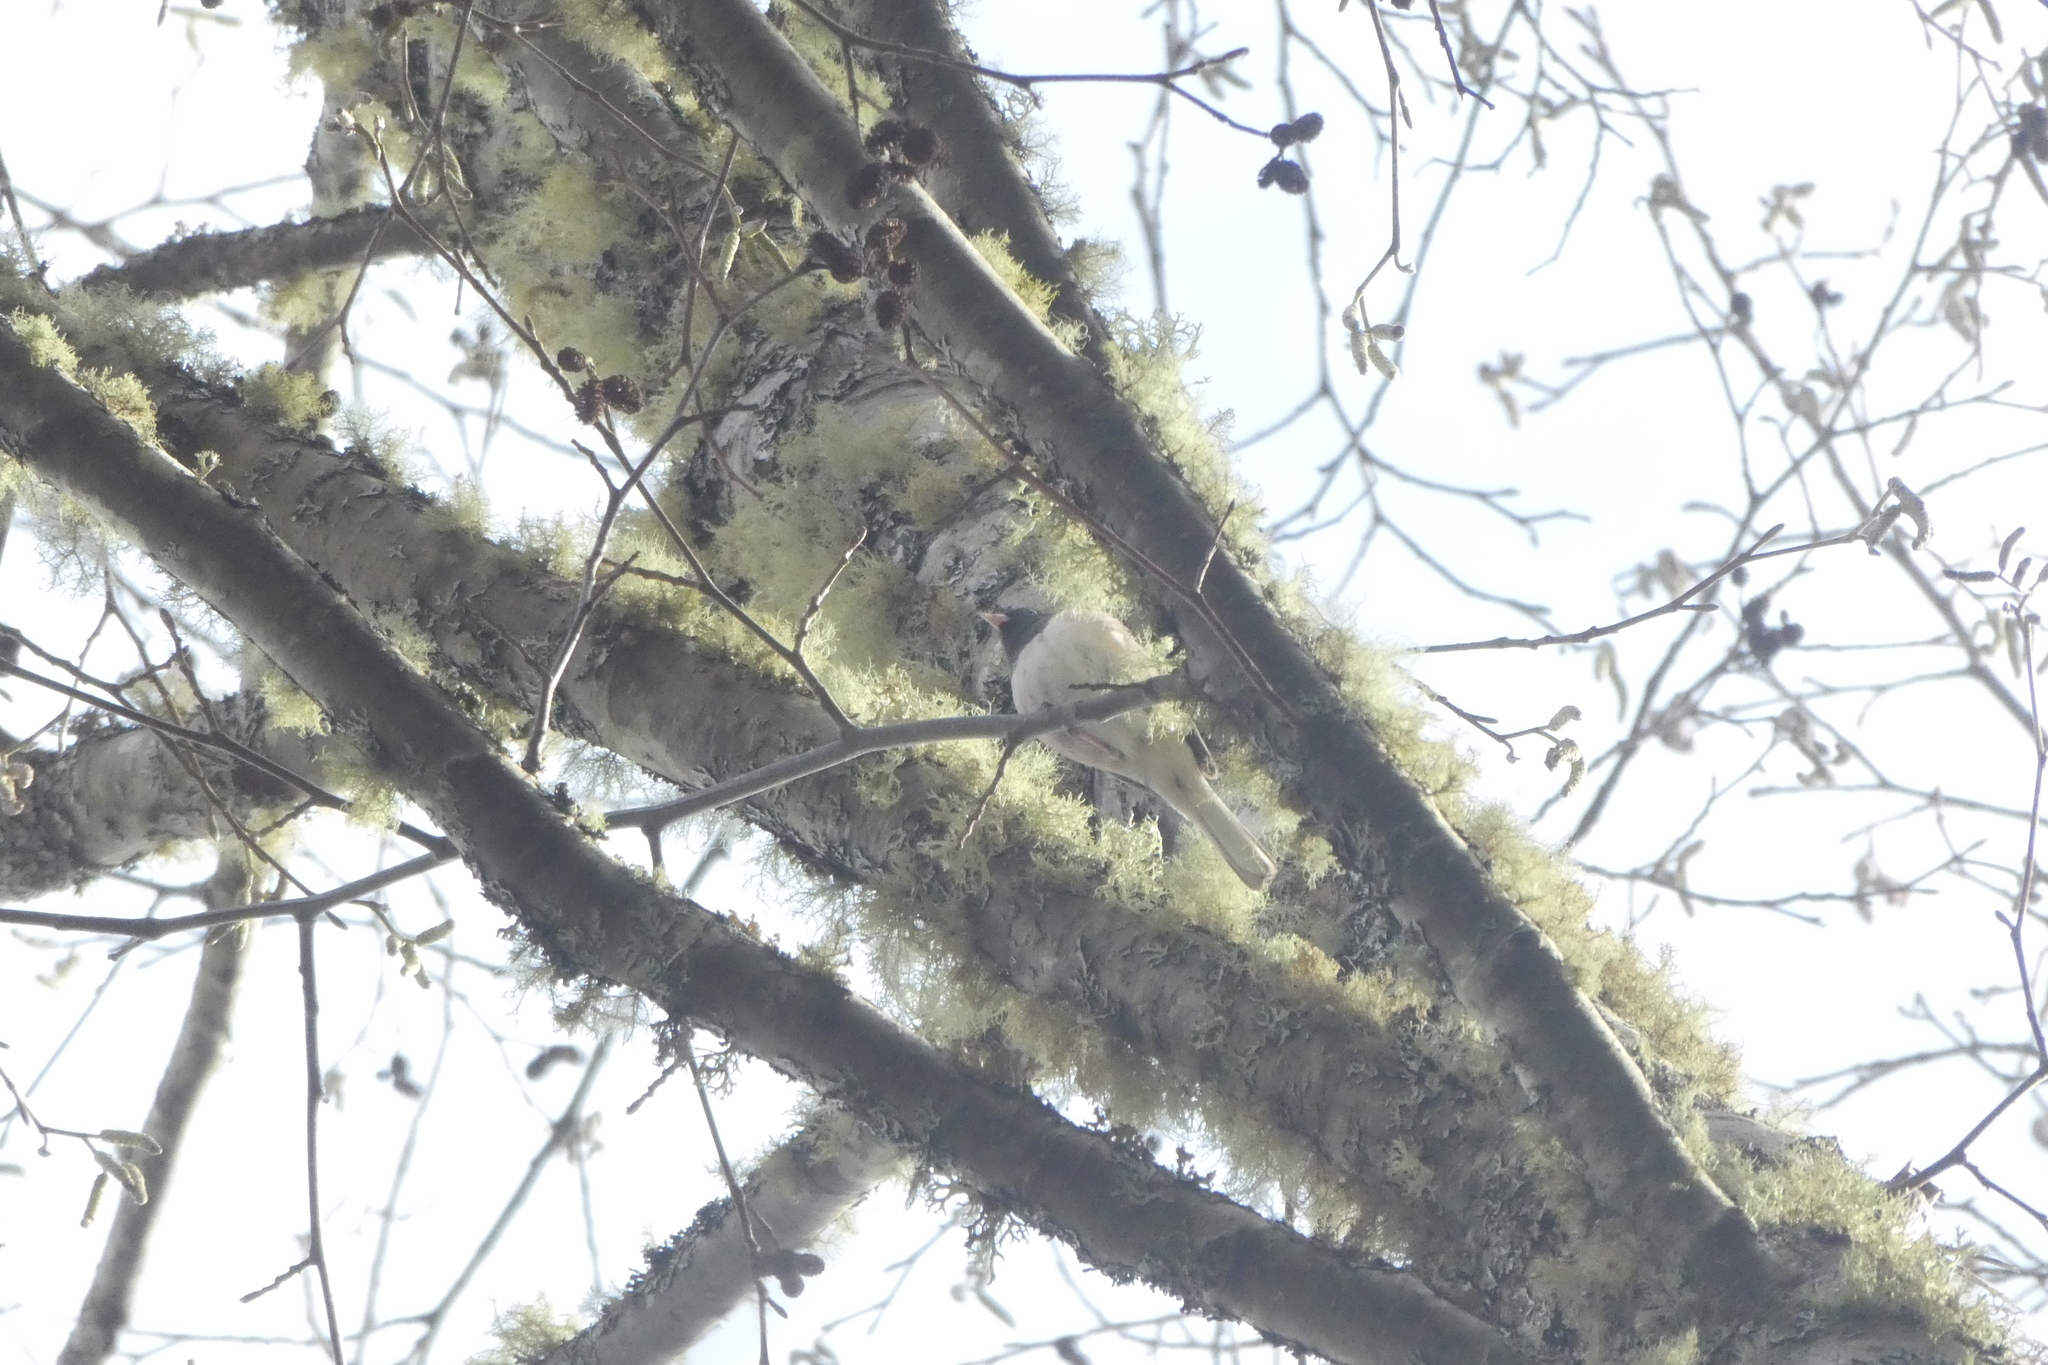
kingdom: Animalia
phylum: Chordata
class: Aves
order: Passeriformes
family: Passerellidae
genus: Junco
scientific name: Junco hyemalis
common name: Dark-eyed junco
